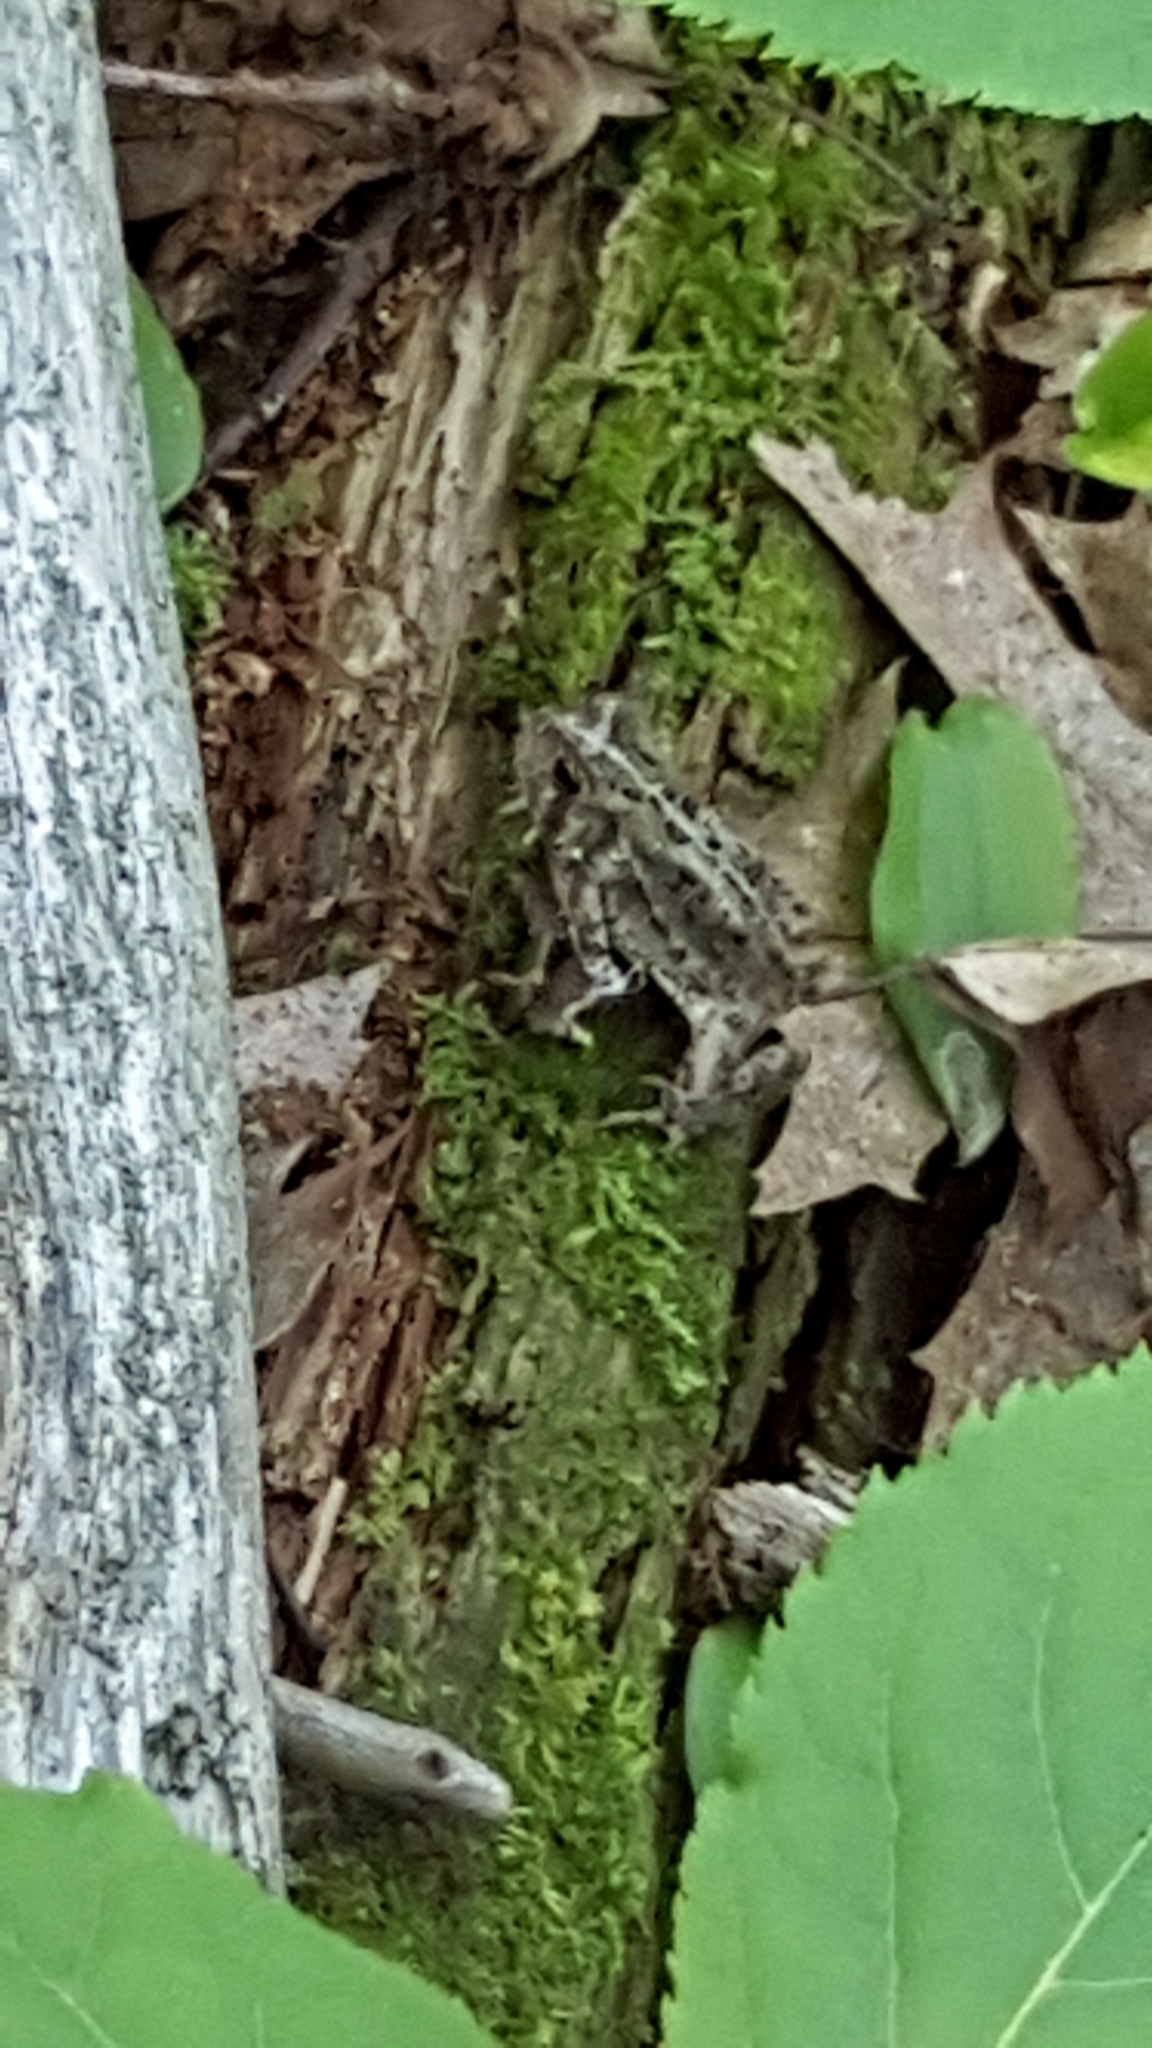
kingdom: Animalia
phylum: Chordata
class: Amphibia
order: Anura
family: Bufonidae
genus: Anaxyrus
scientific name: Anaxyrus americanus
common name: American toad
